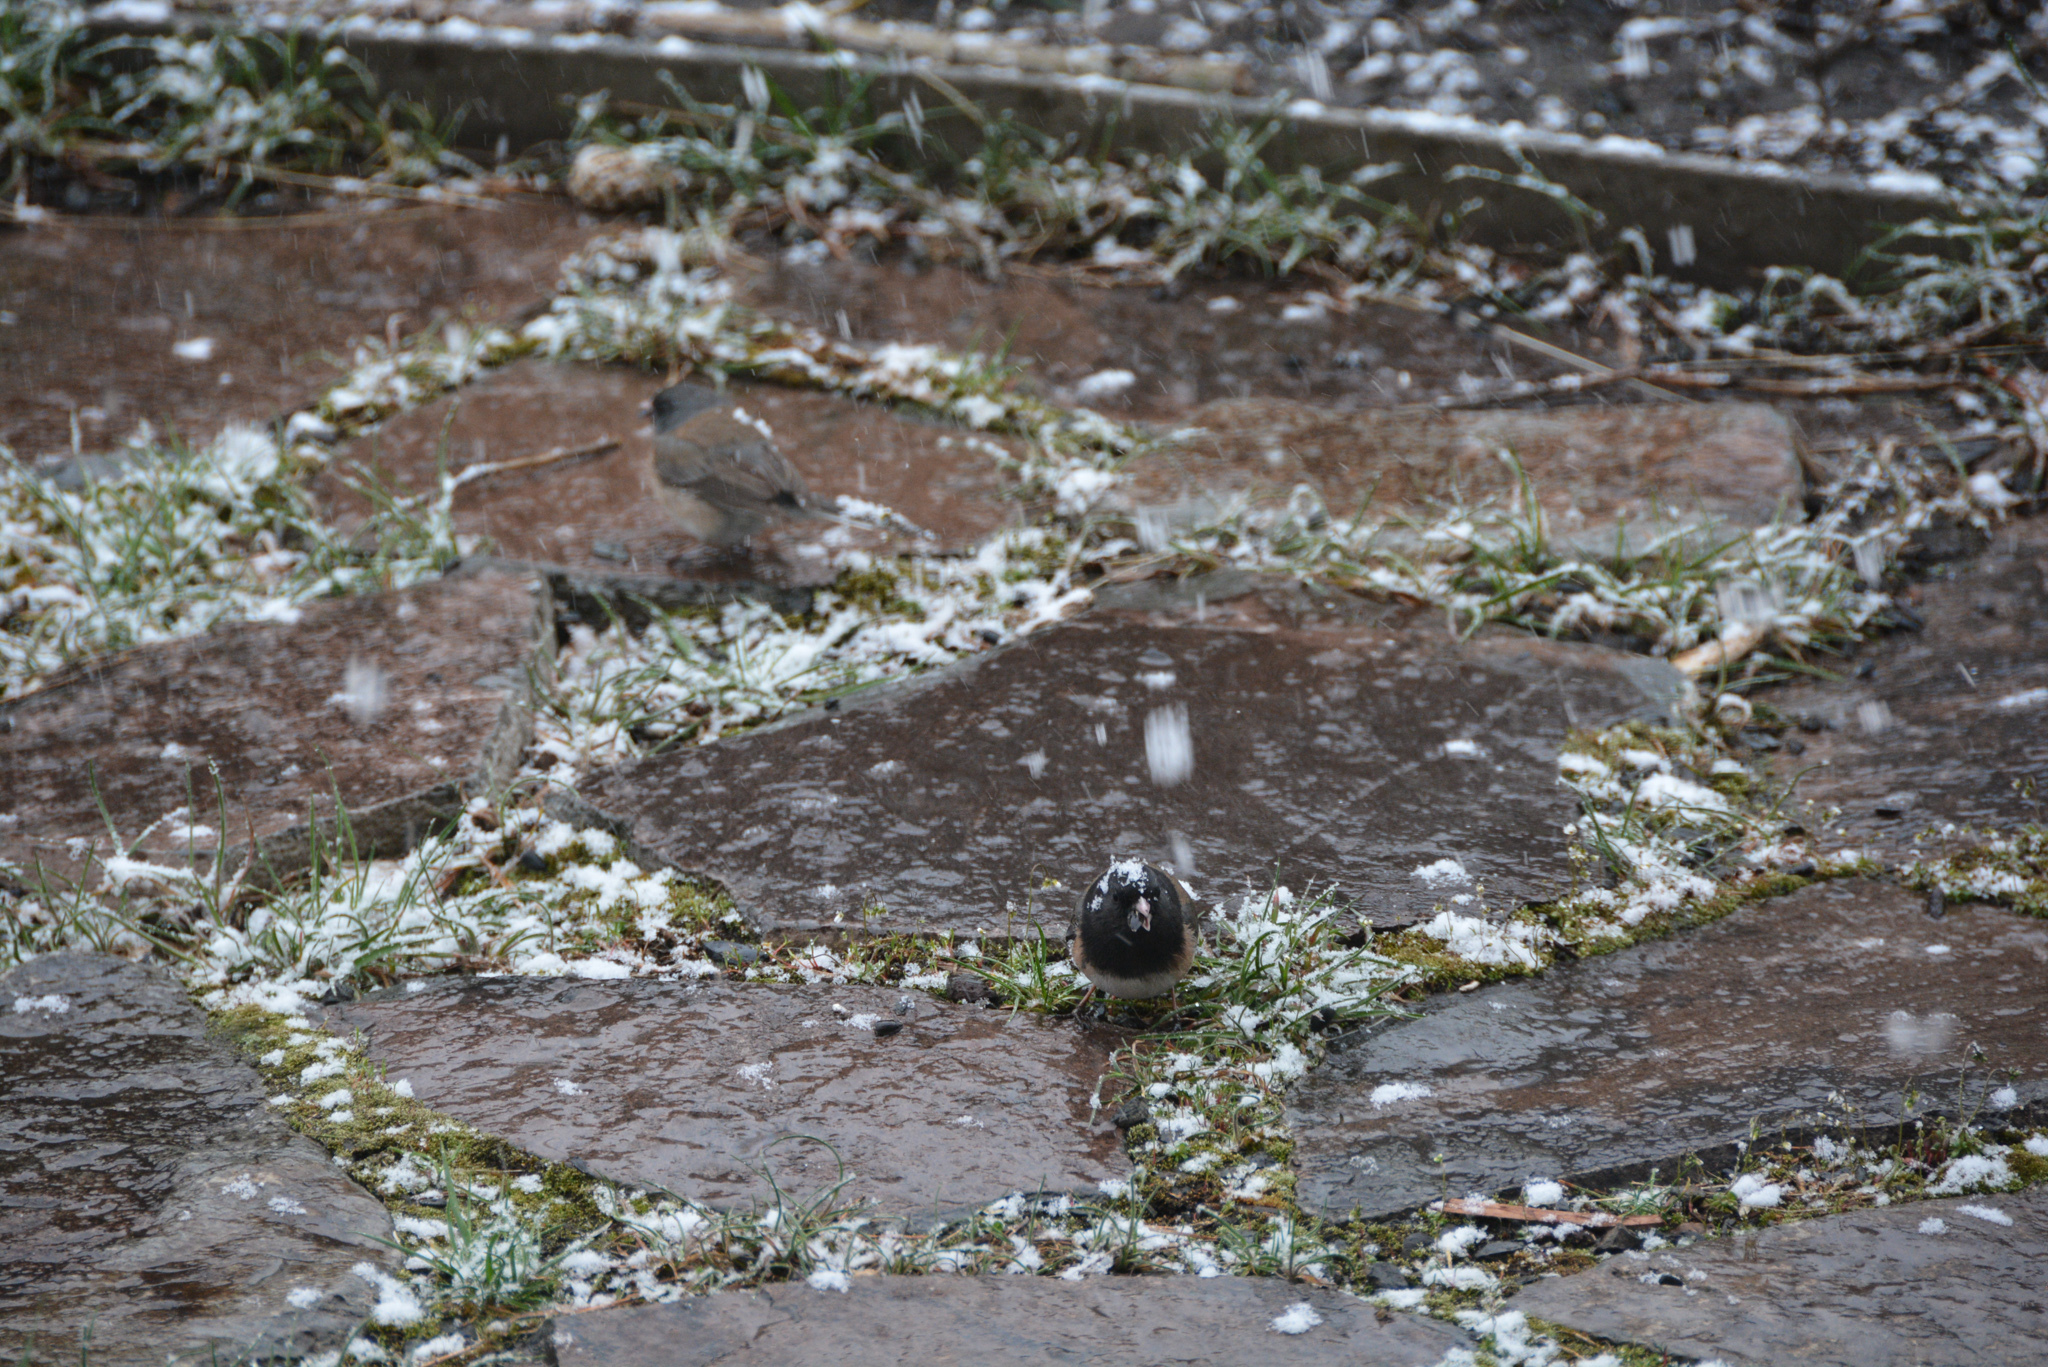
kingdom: Animalia
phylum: Chordata
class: Aves
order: Passeriformes
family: Passerellidae
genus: Junco
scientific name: Junco hyemalis
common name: Dark-eyed junco
